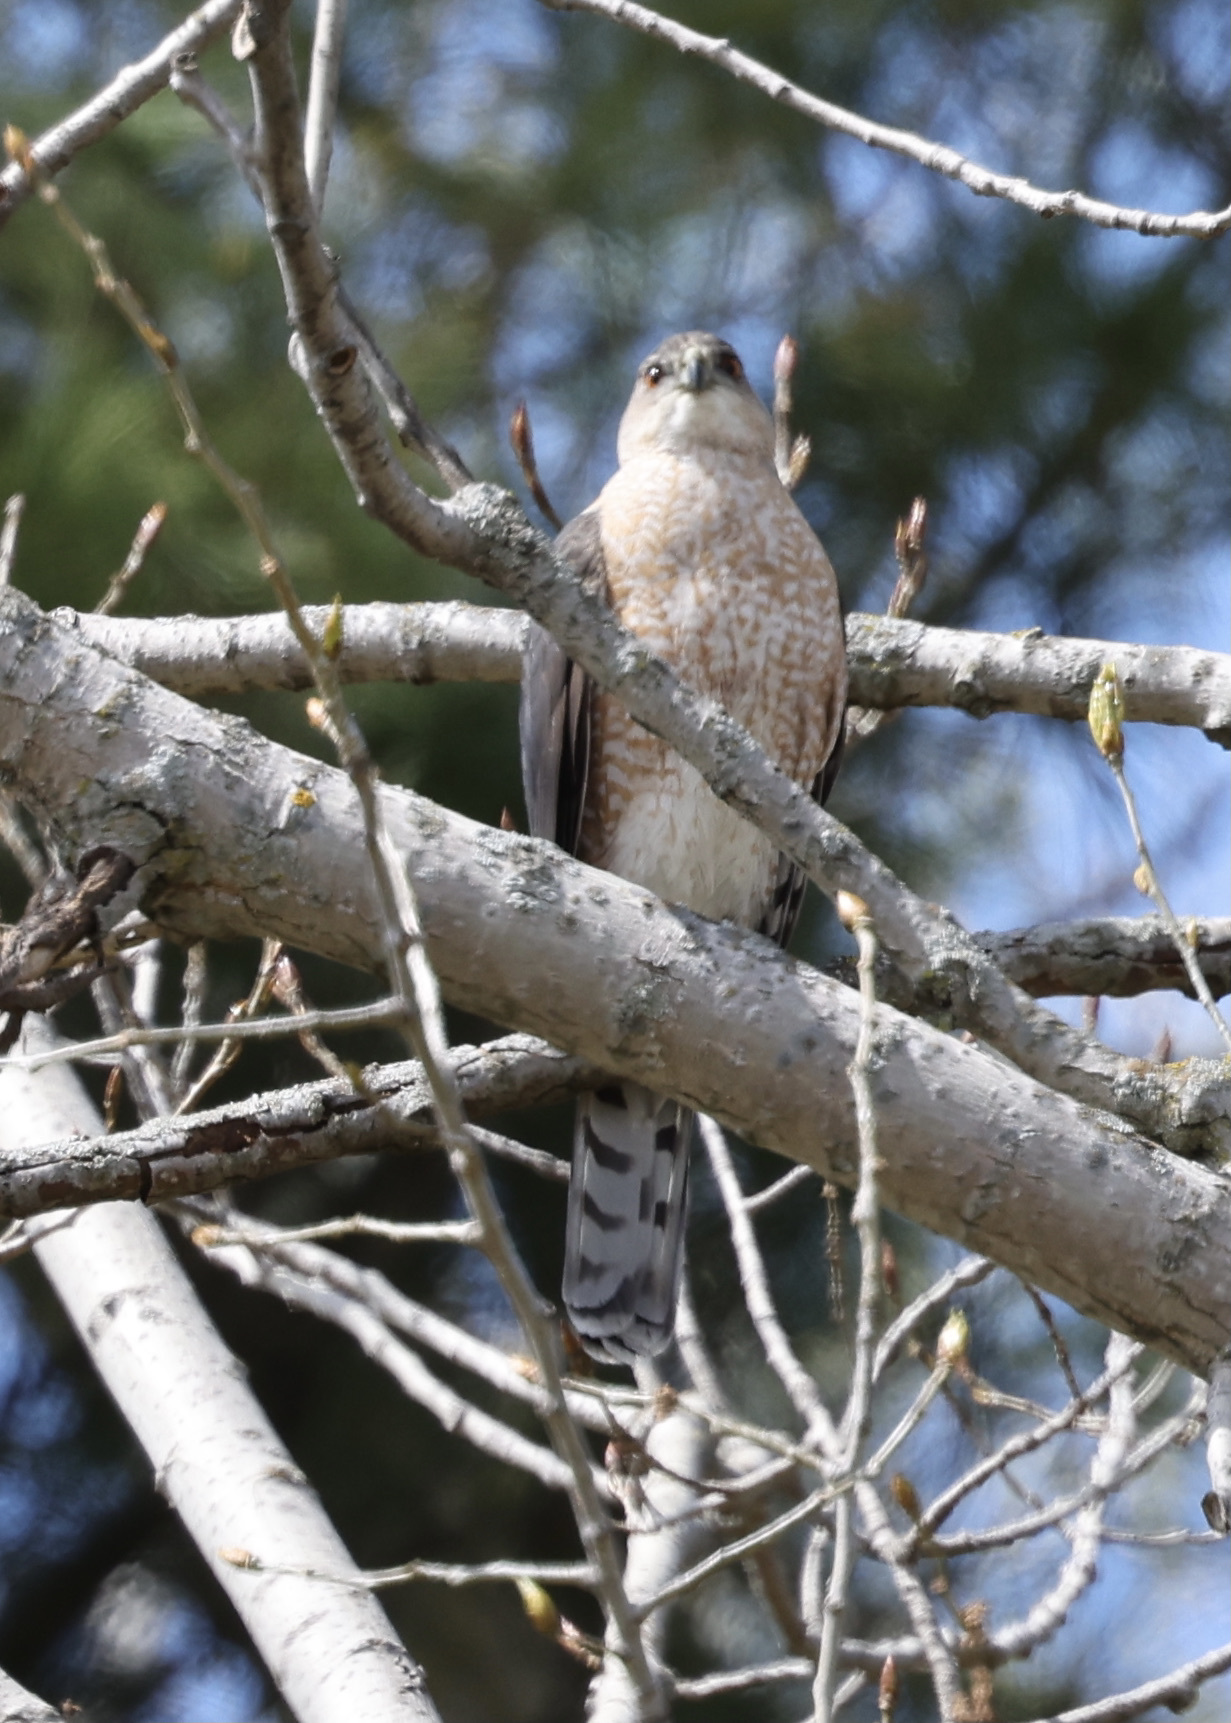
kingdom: Animalia
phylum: Chordata
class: Aves
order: Accipitriformes
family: Accipitridae
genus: Accipiter
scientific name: Accipiter cooperii
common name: Cooper's hawk
